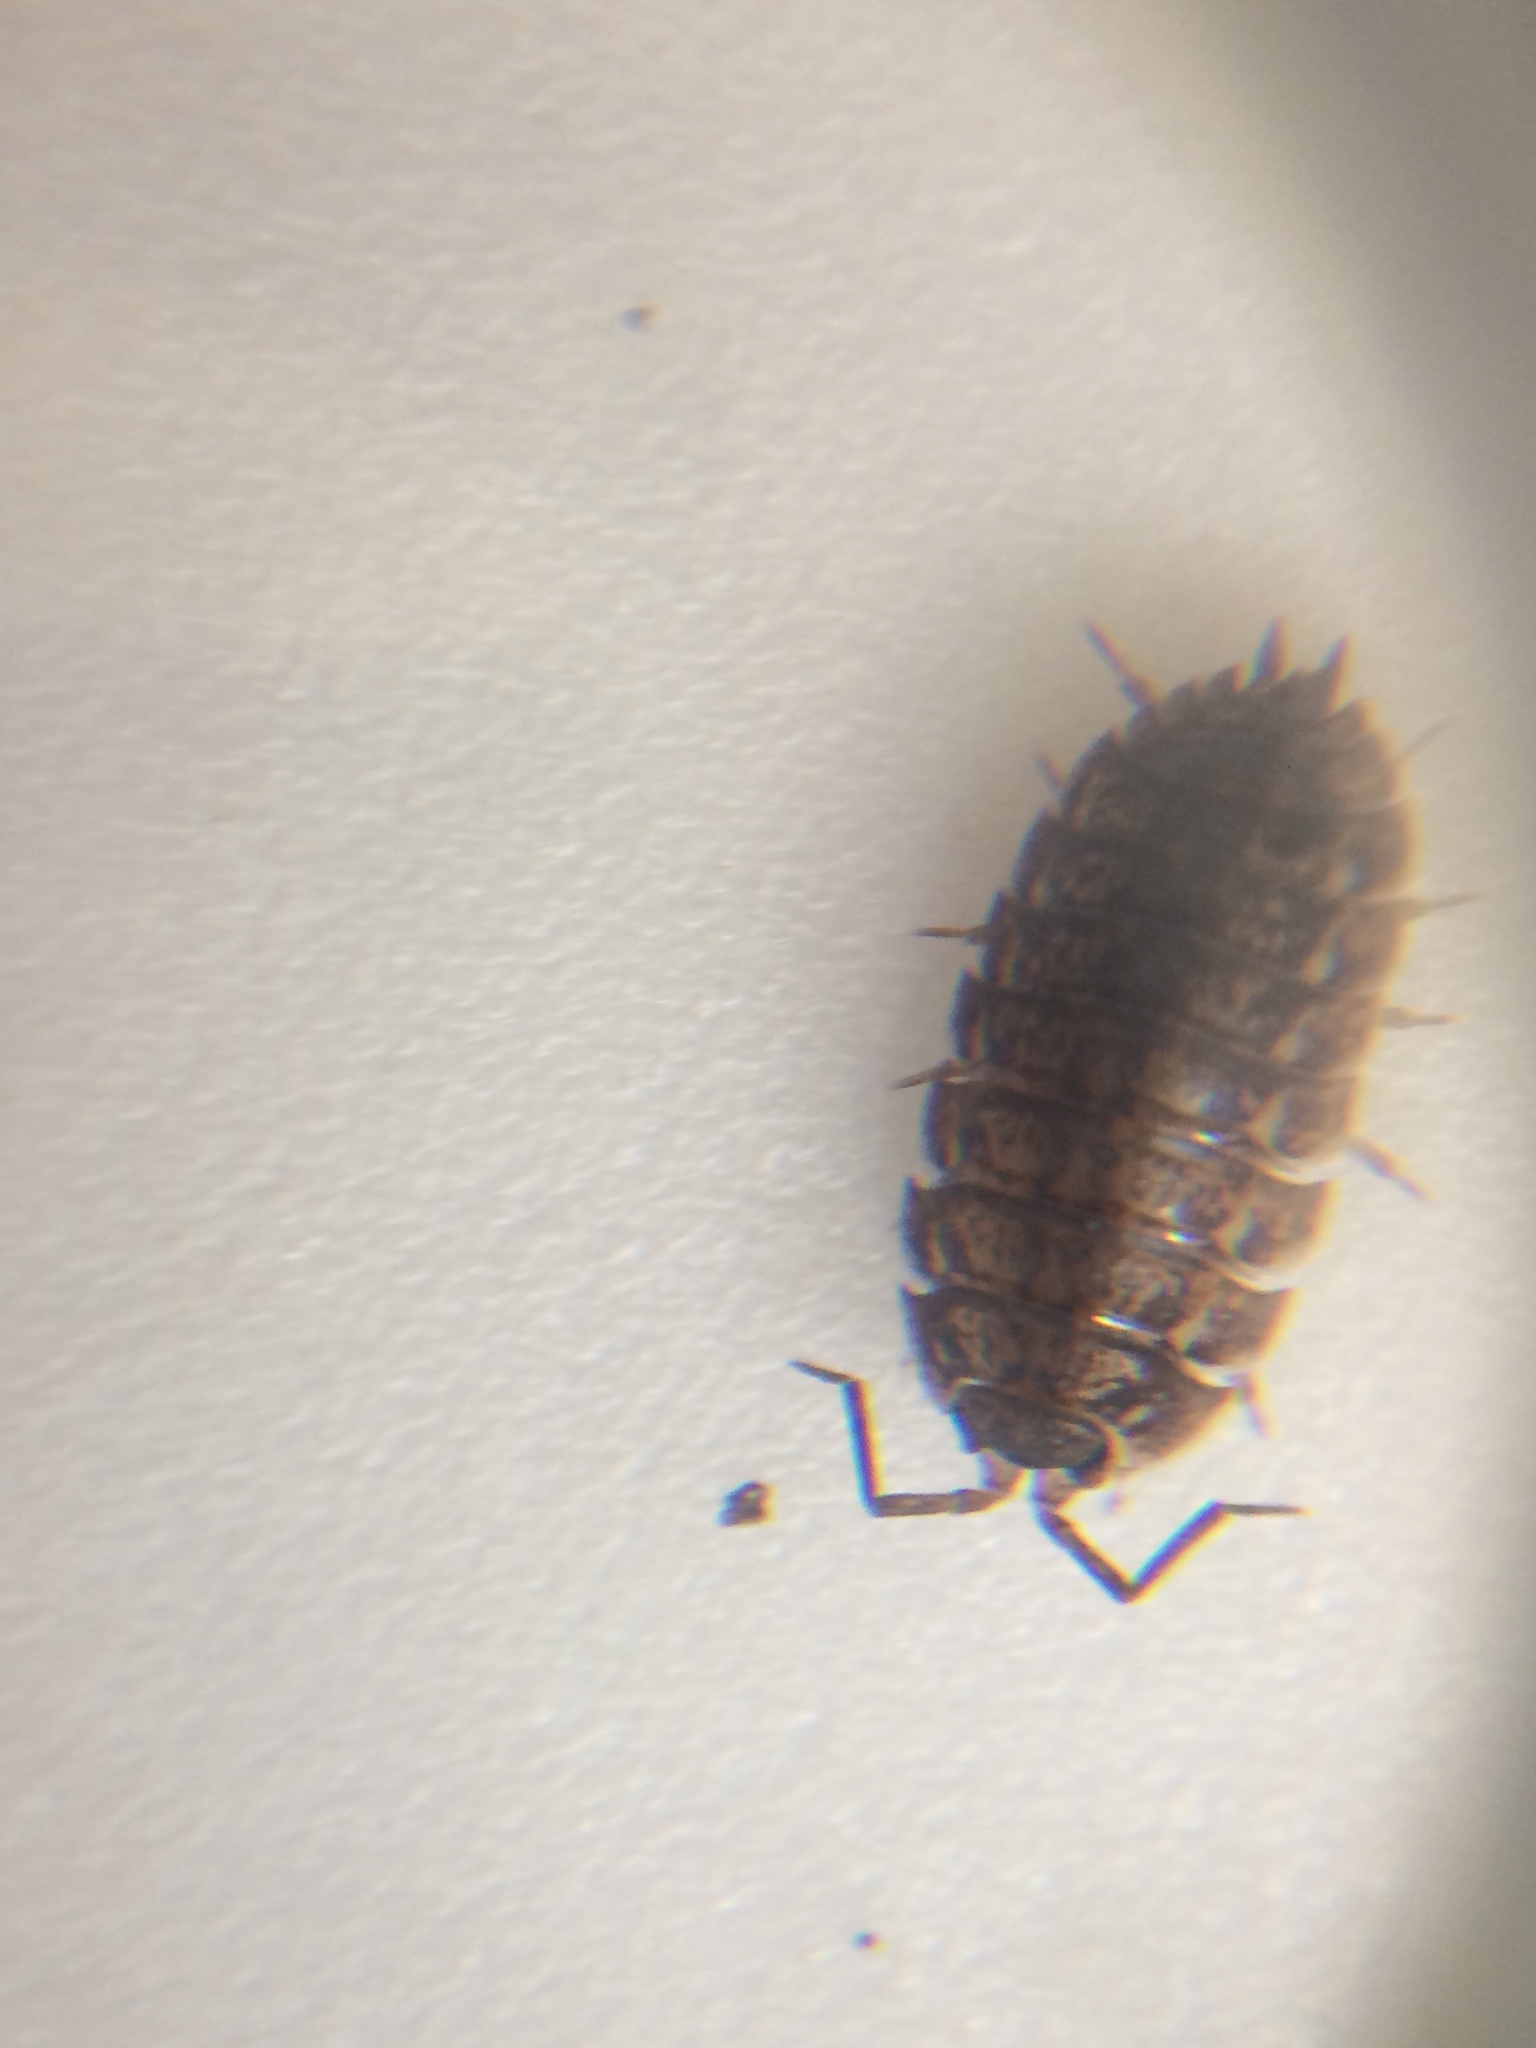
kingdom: Animalia
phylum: Arthropoda
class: Malacostraca
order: Isopoda
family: Trachelipodidae
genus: Trachelipus
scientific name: Trachelipus rathkii
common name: Isopod
